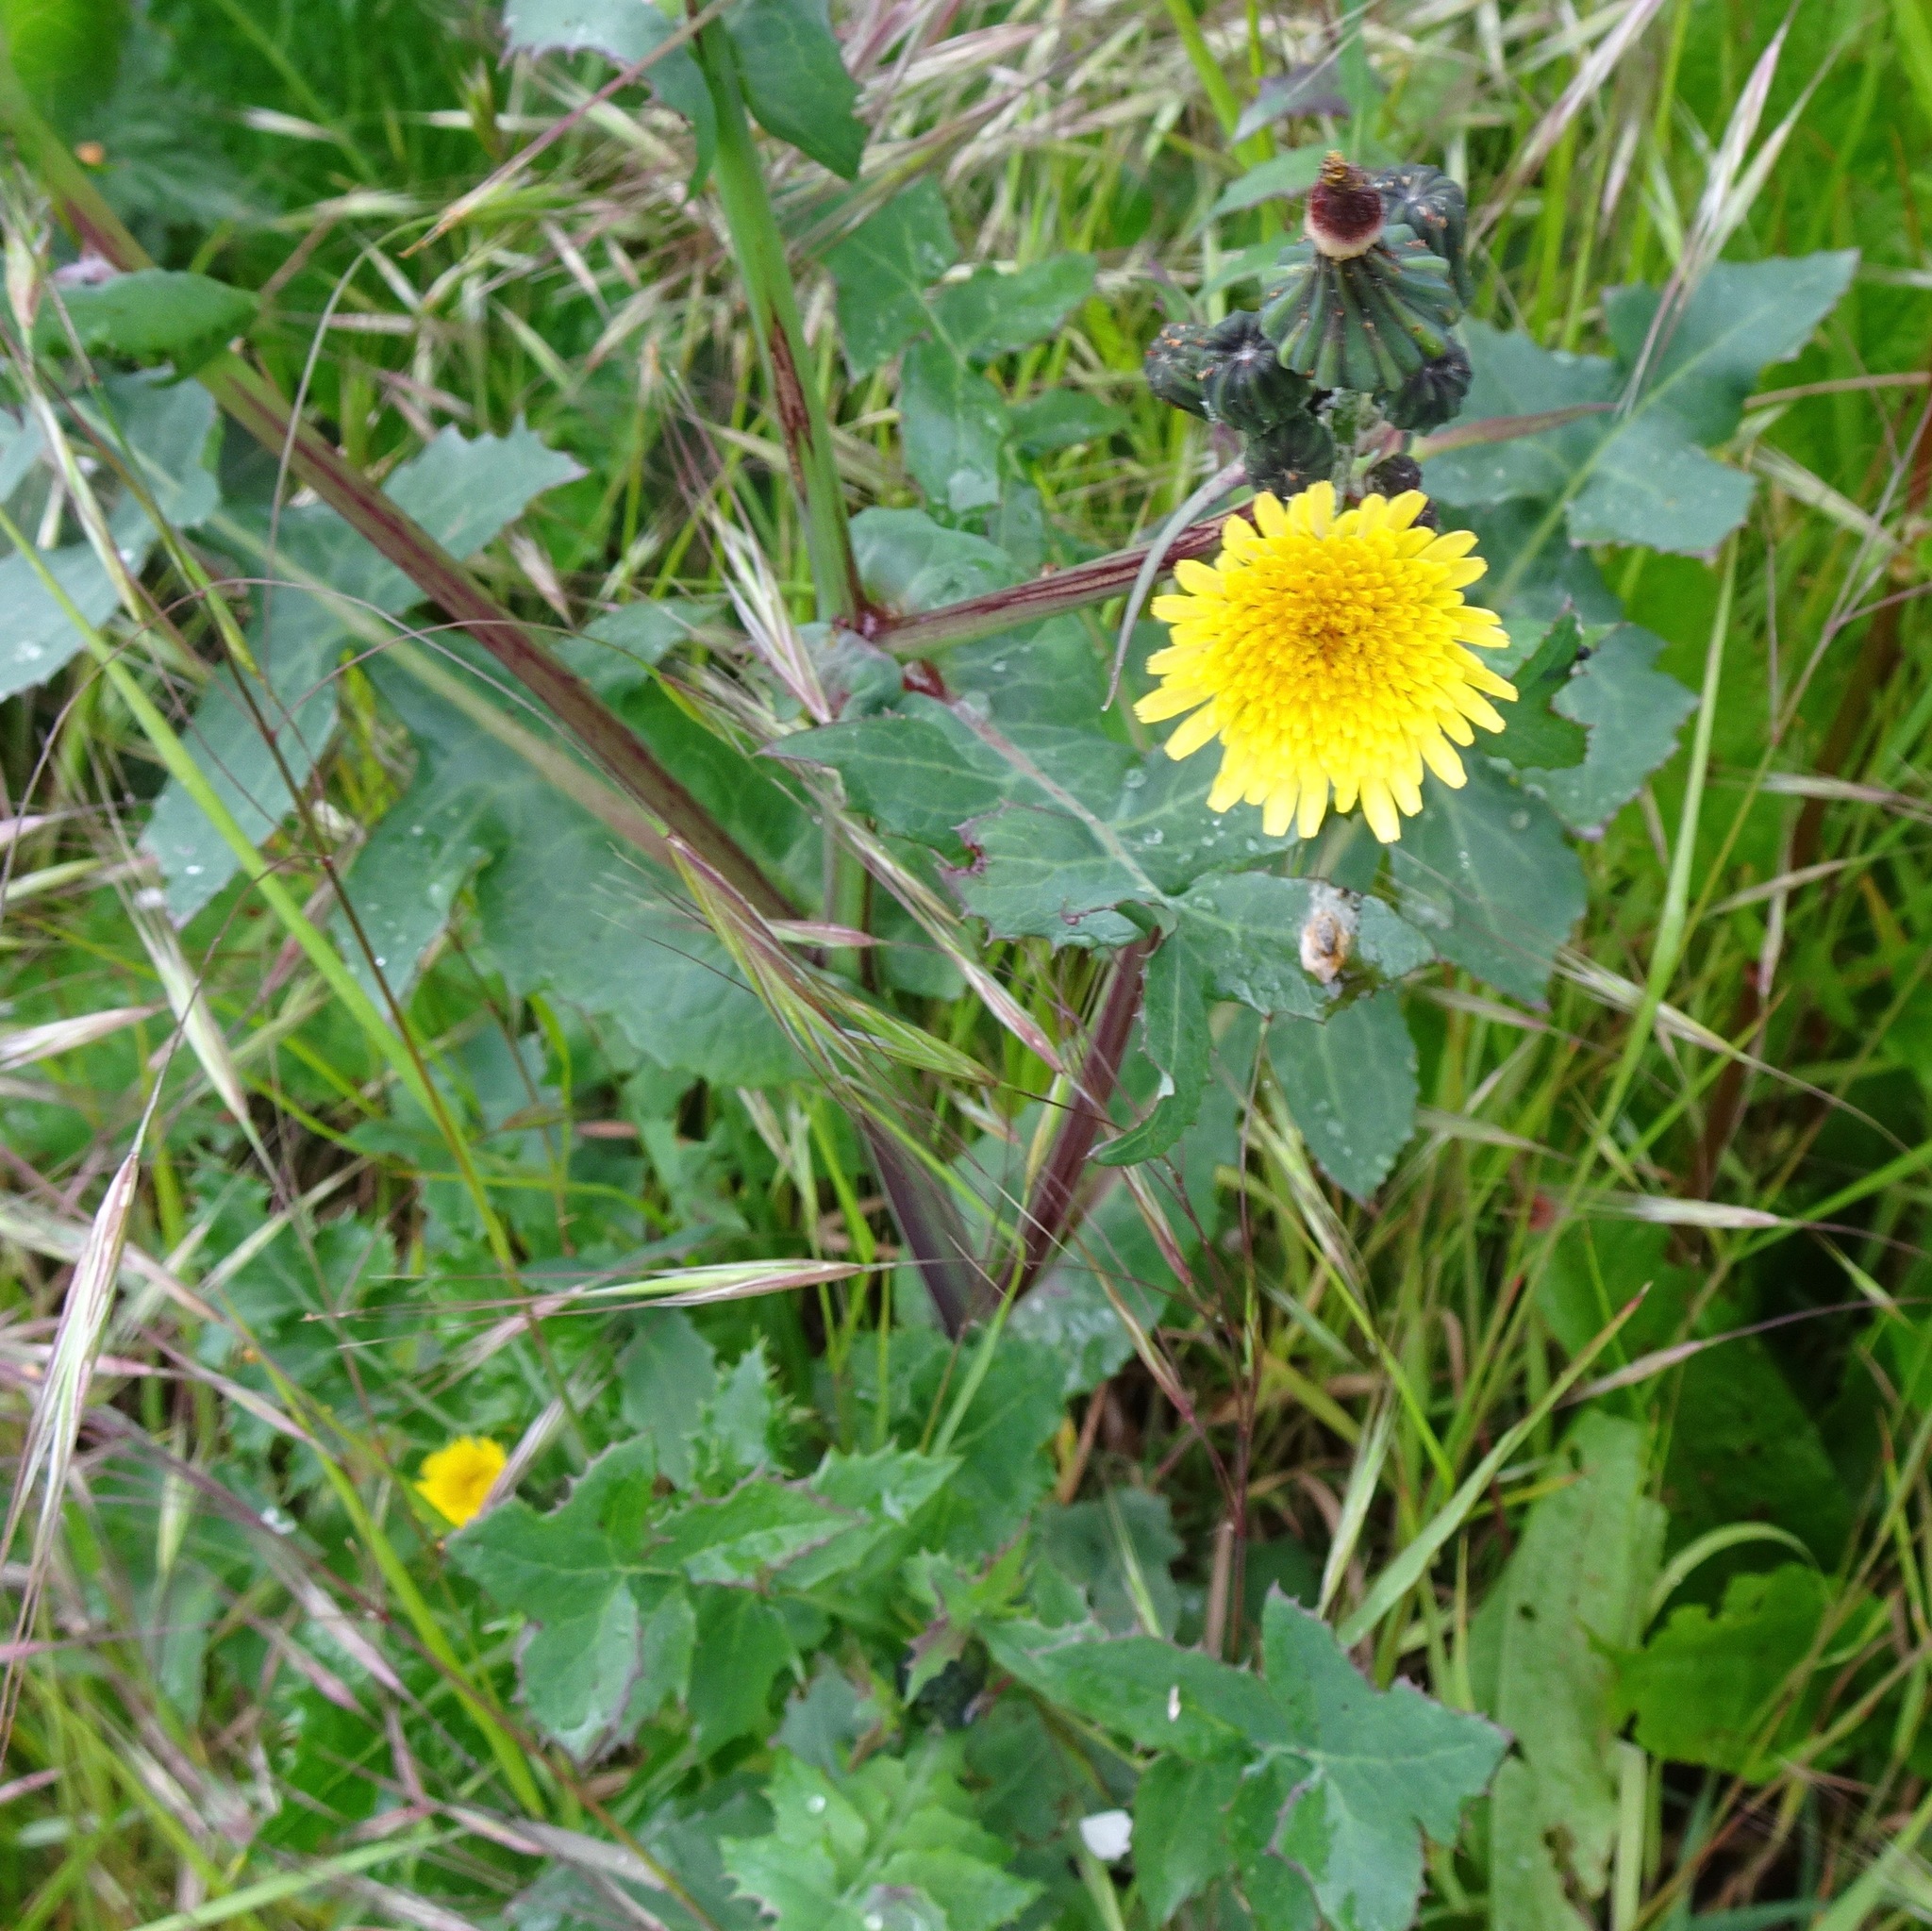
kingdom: Plantae
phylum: Tracheophyta
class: Magnoliopsida
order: Asterales
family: Asteraceae
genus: Sonchus
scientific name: Sonchus oleraceus
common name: Common sowthistle
